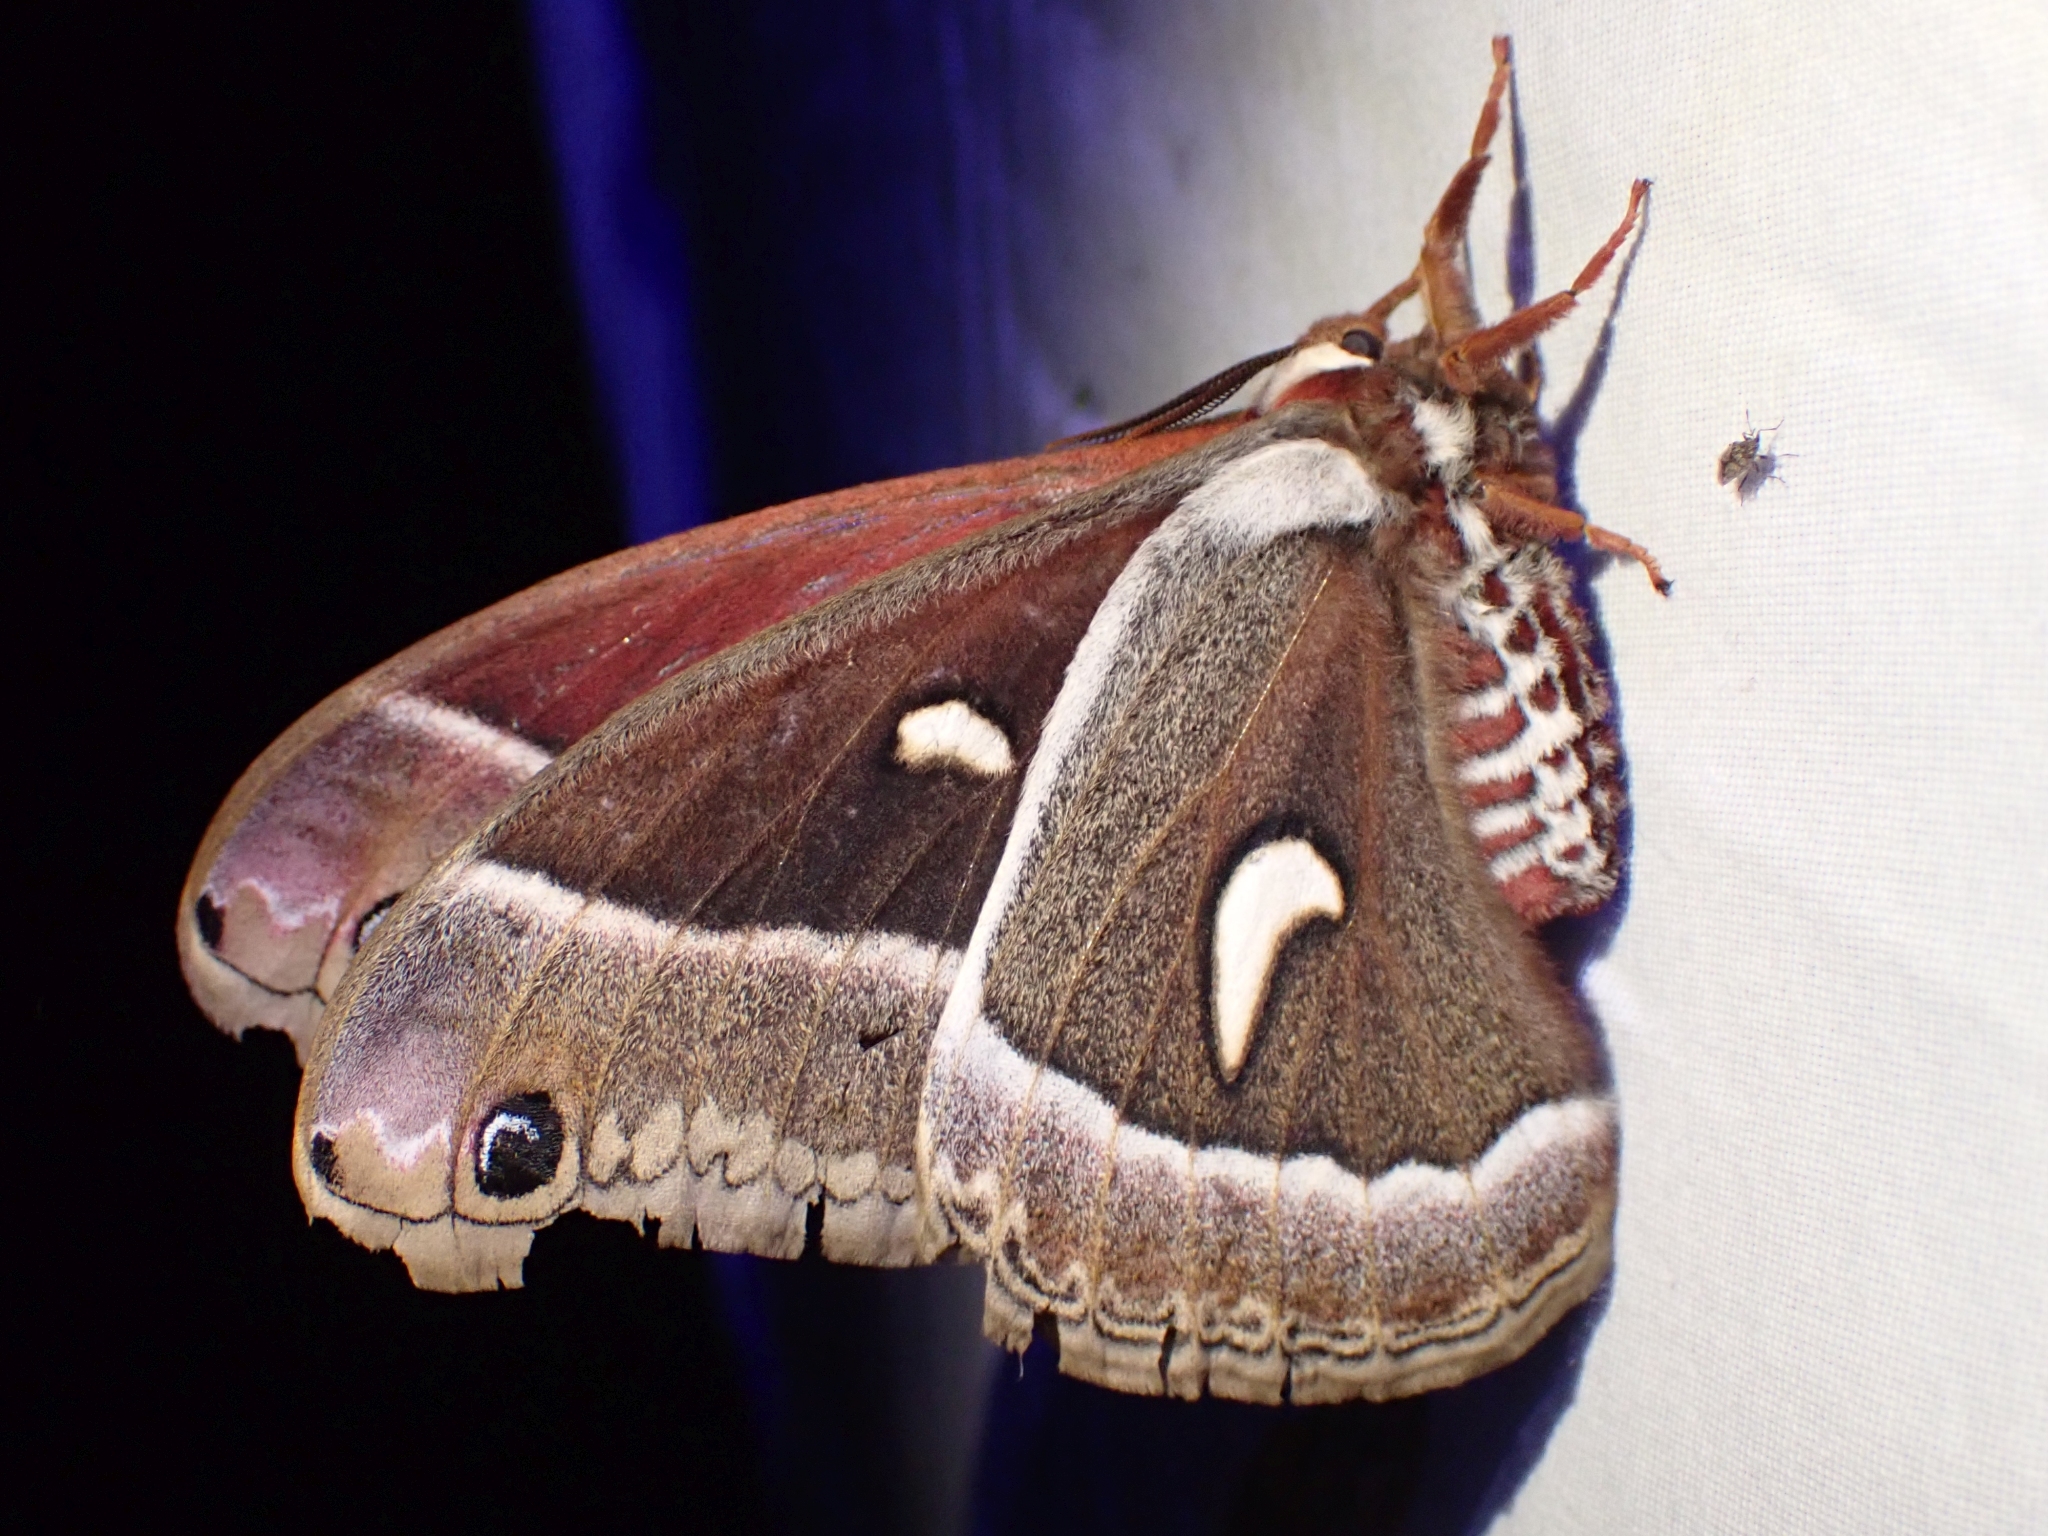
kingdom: Animalia
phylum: Arthropoda
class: Insecta
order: Lepidoptera
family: Saturniidae
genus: Hyalophora
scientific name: Hyalophora euryalus
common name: Ceanothus silkmoth
